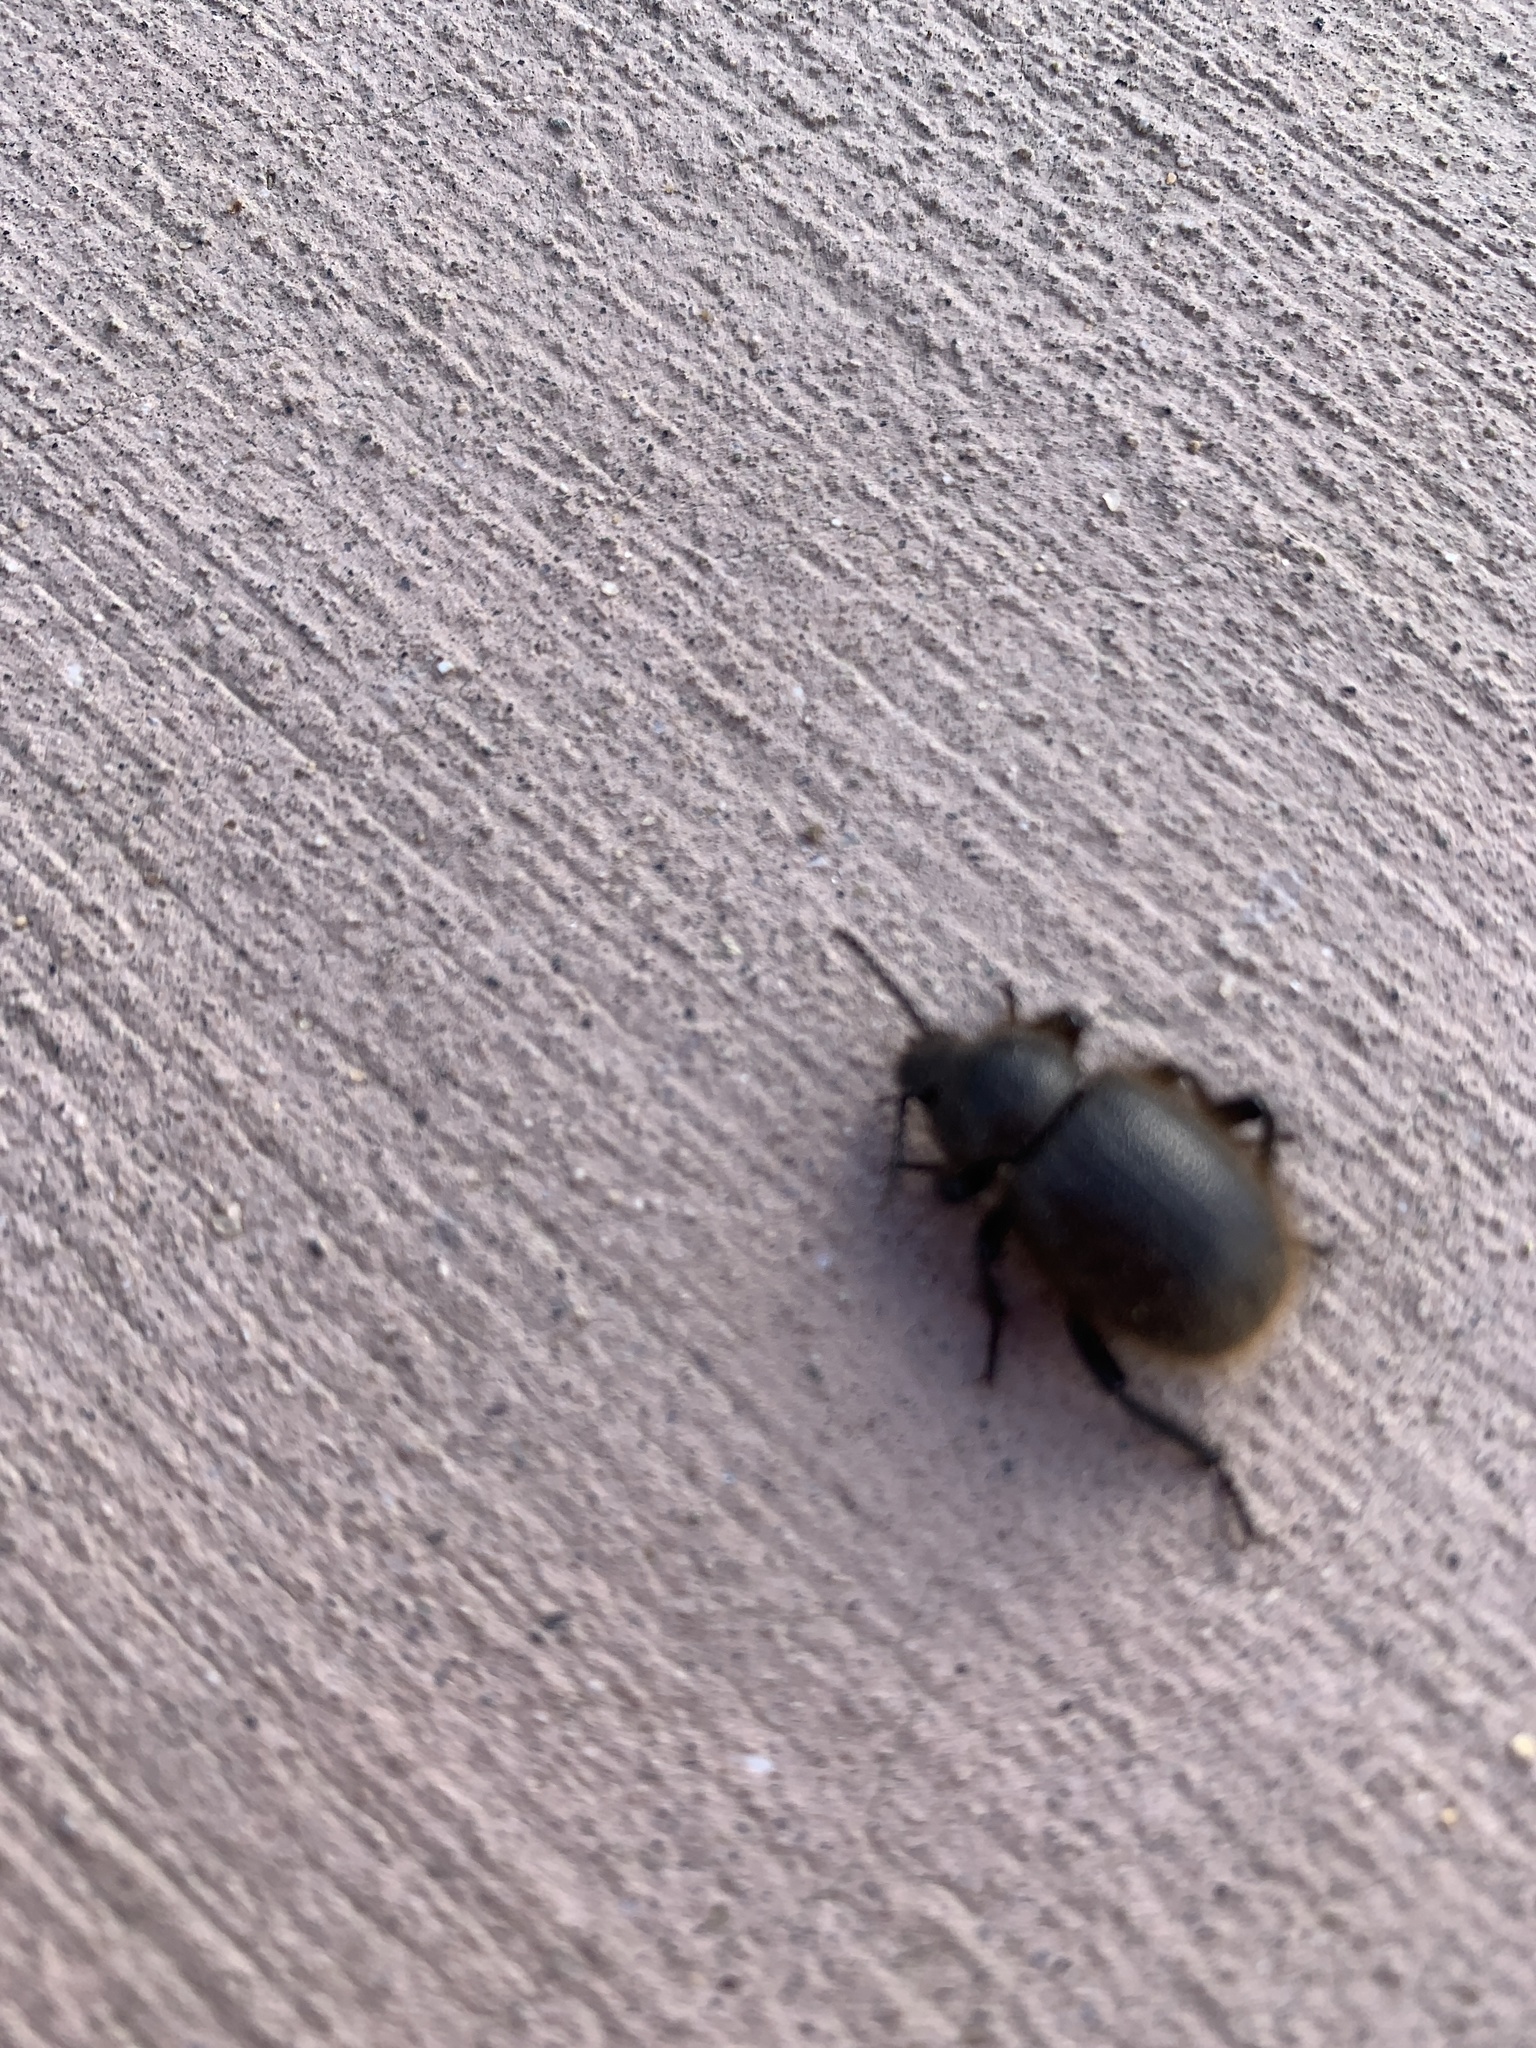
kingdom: Animalia
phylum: Arthropoda
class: Insecta
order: Coleoptera
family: Tenebrionidae
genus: Eleodes
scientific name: Eleodes osculans
